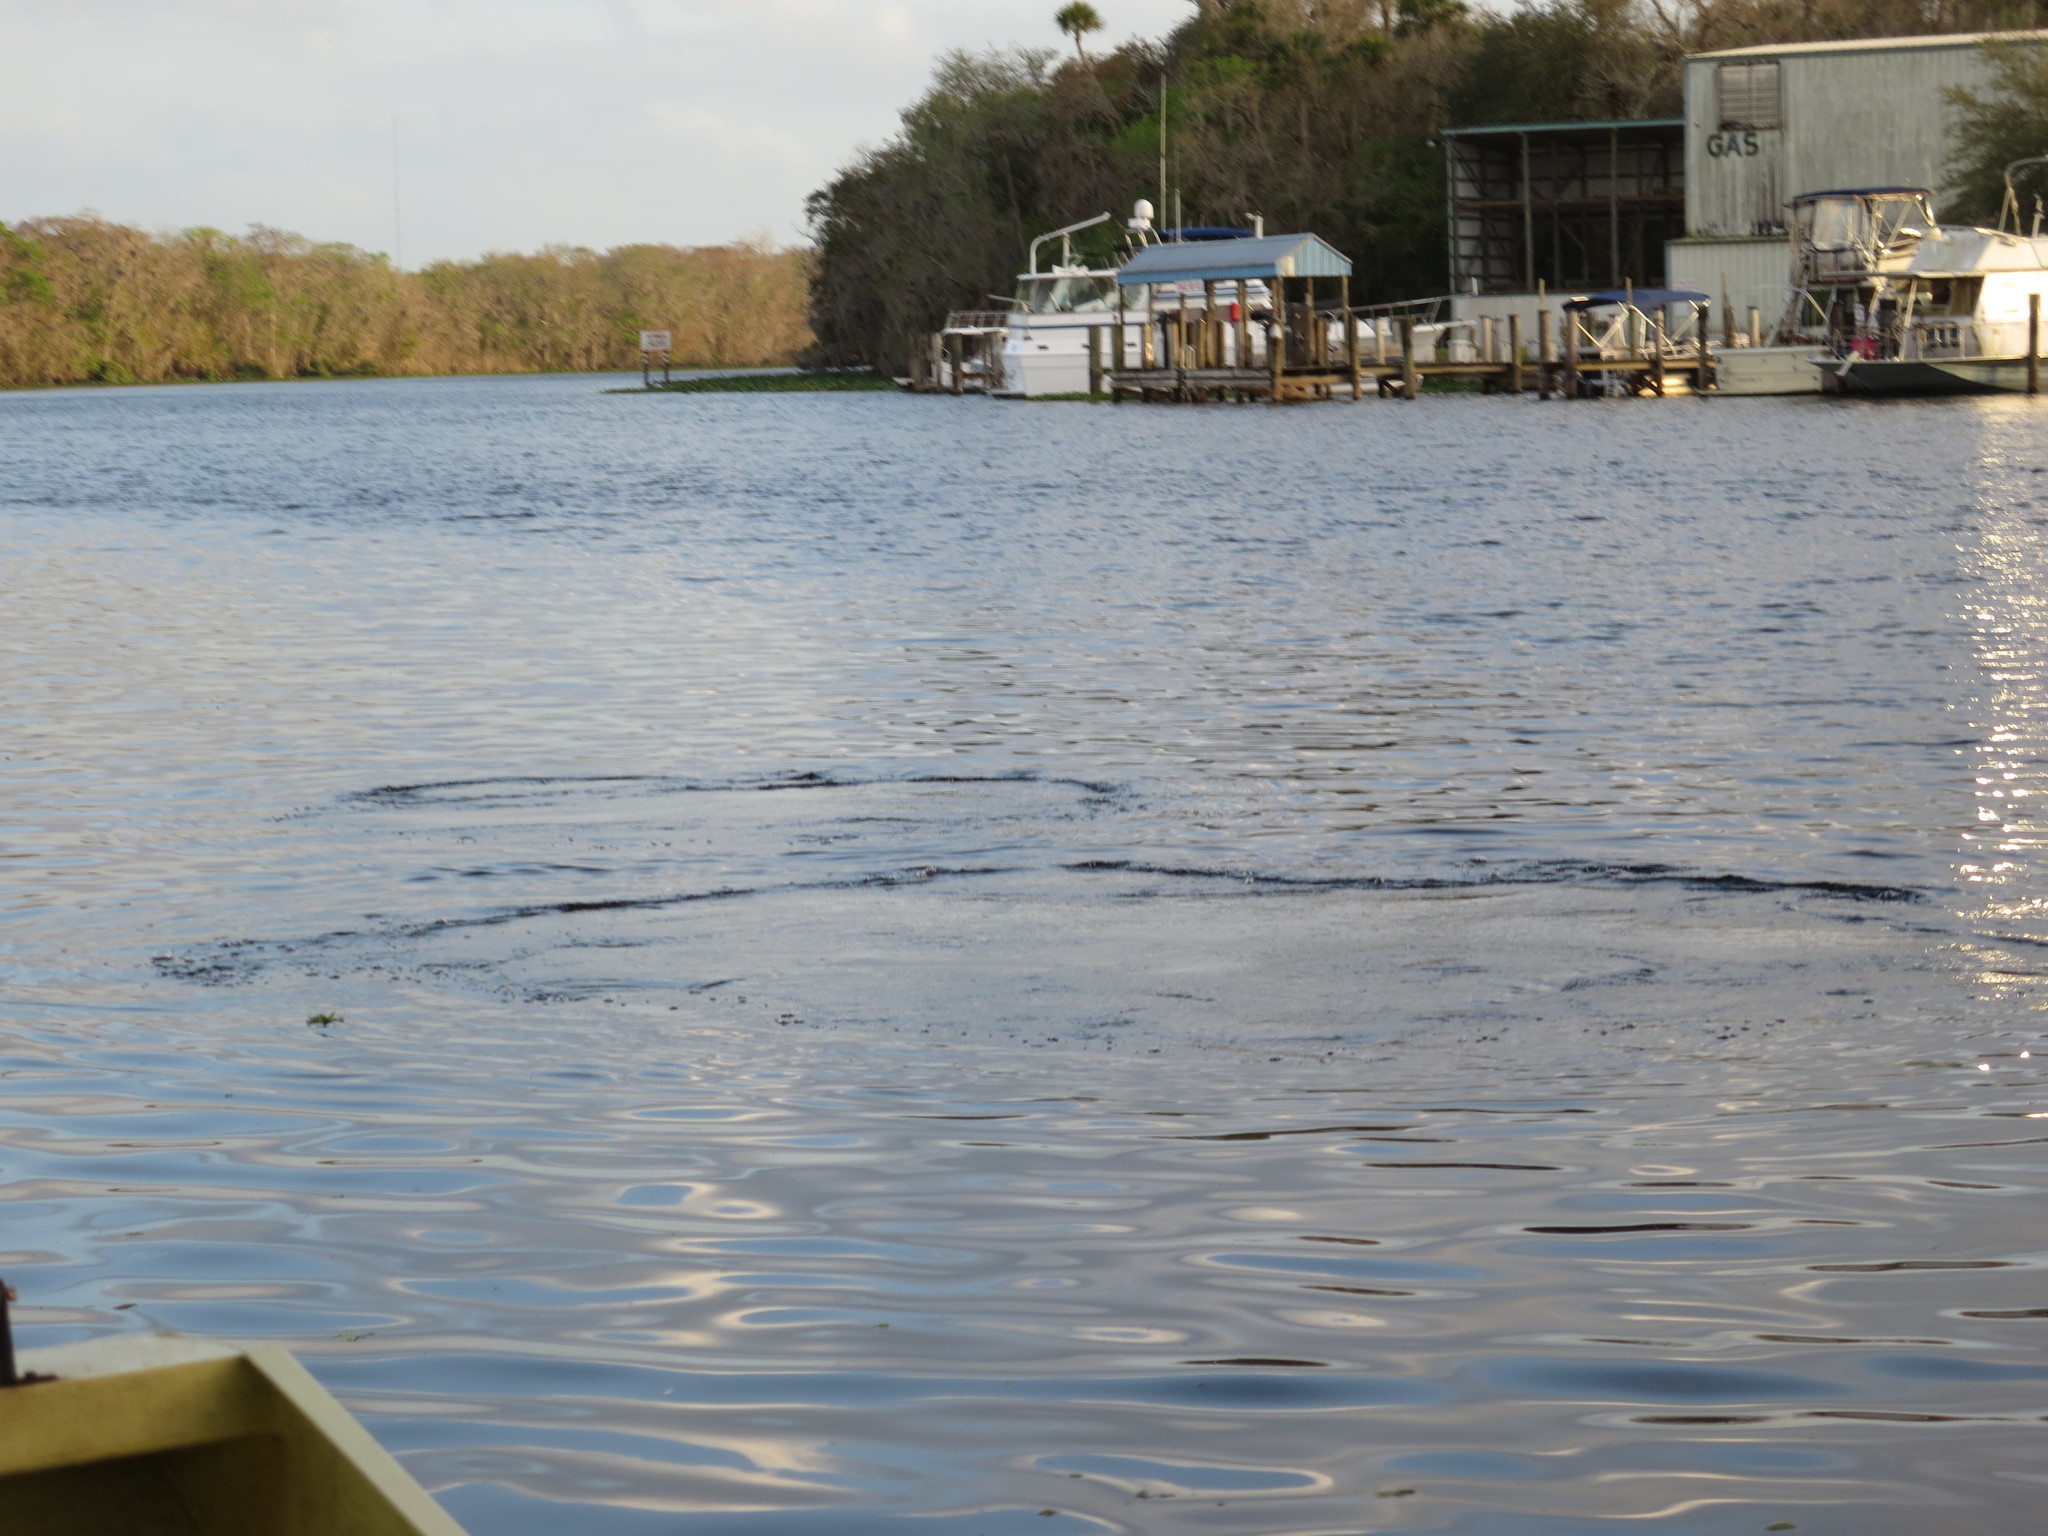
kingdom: Animalia
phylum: Chordata
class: Mammalia
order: Sirenia
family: Trichechidae
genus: Trichechus
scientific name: Trichechus manatus
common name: West indian manatee
